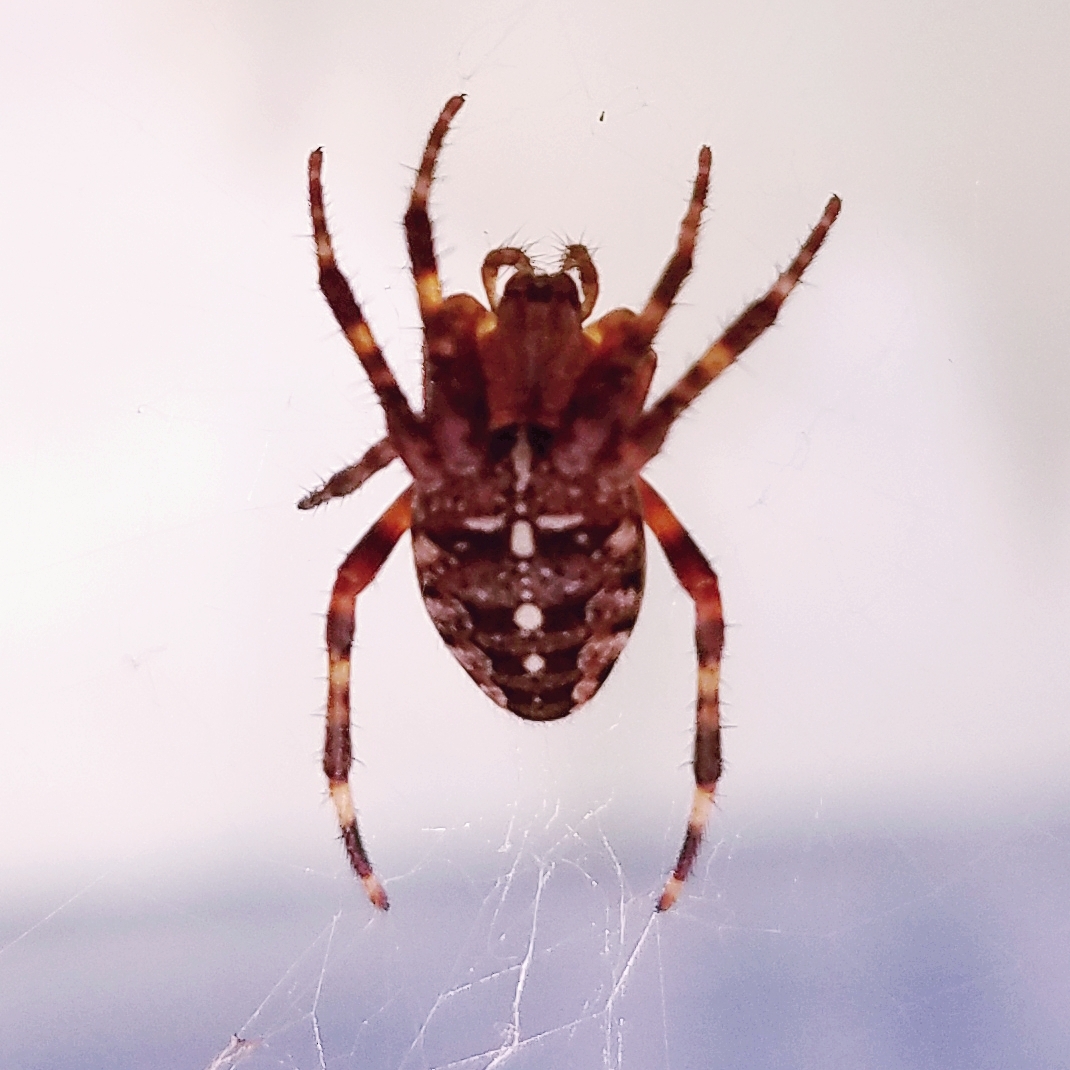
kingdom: Animalia
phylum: Arthropoda
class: Arachnida
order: Araneae
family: Araneidae
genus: Araneus
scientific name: Araneus diadematus
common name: Cross orbweaver
